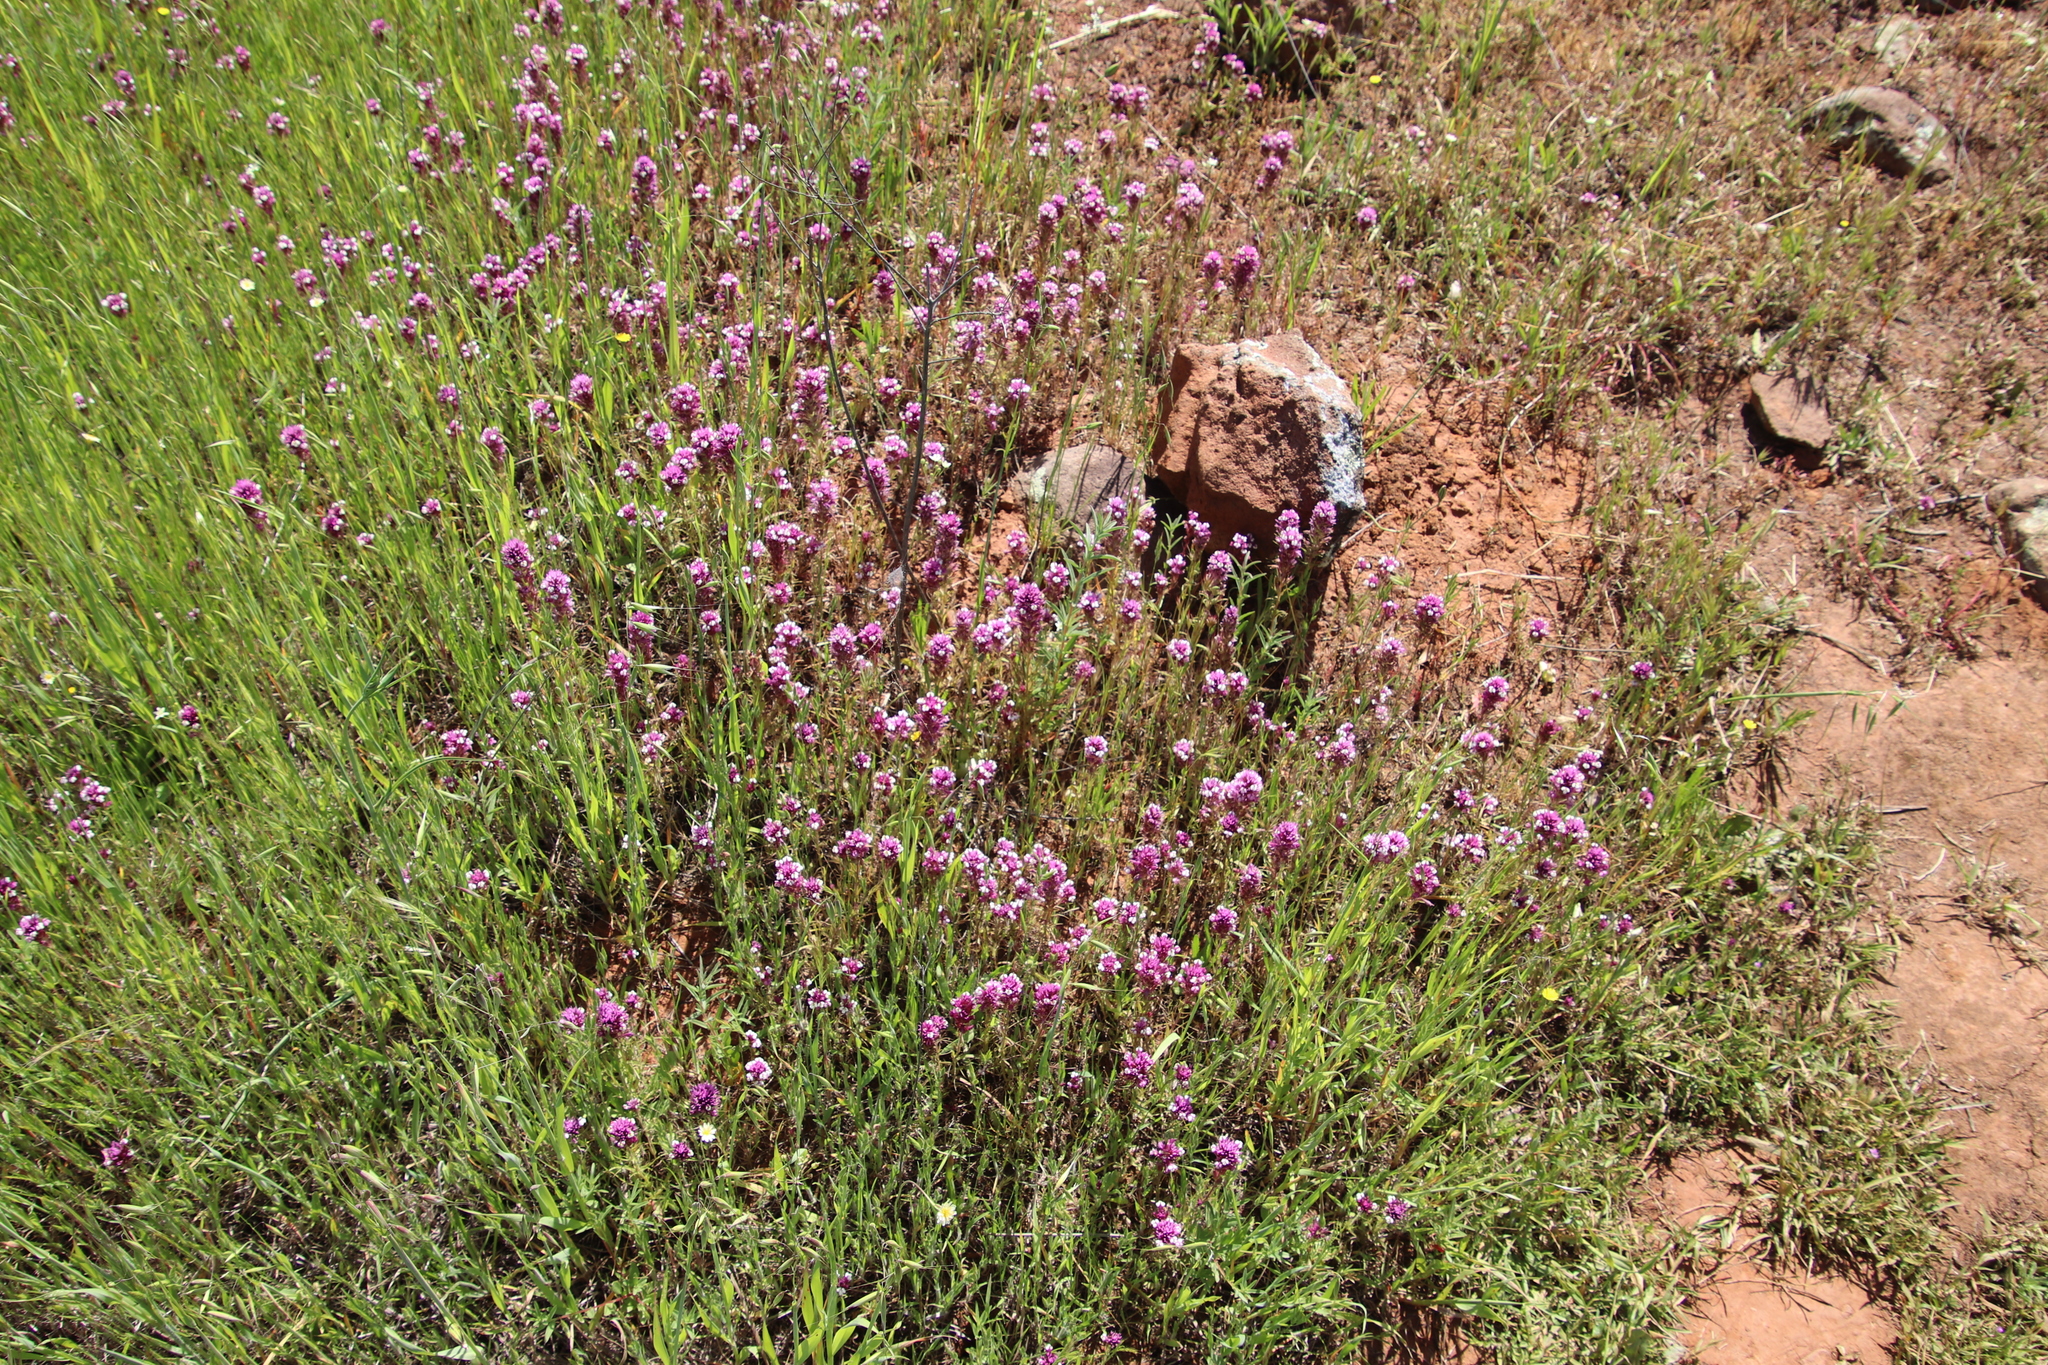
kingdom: Plantae
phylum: Tracheophyta
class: Magnoliopsida
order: Lamiales
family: Orobanchaceae
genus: Castilleja
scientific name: Castilleja densiflora
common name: Dense-flower indian paintbrush
